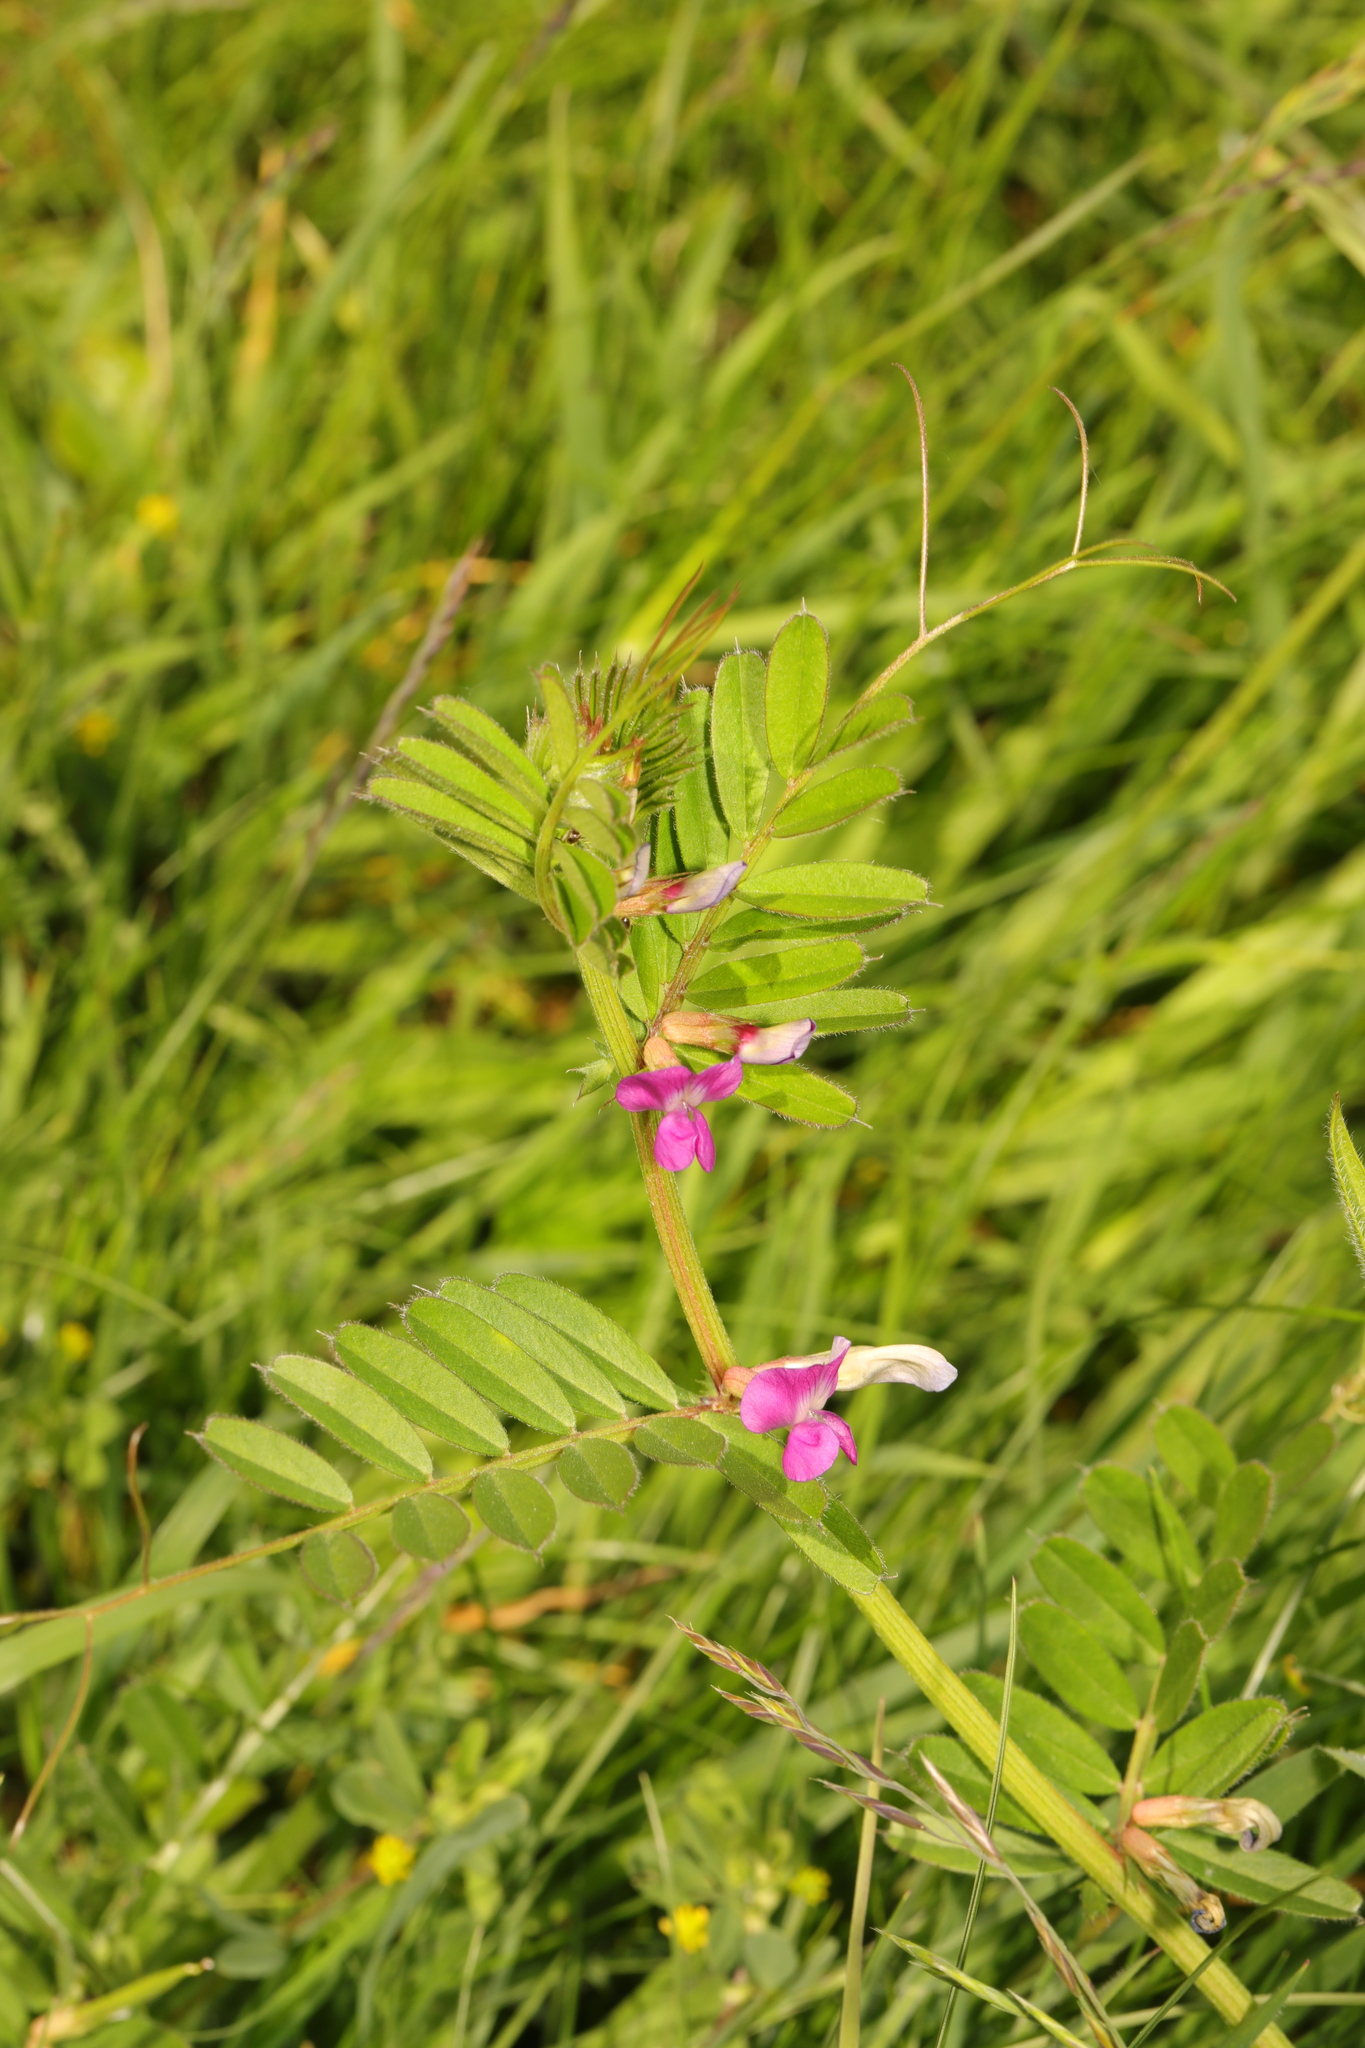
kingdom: Plantae
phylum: Tracheophyta
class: Magnoliopsida
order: Fabales
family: Fabaceae
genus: Vicia
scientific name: Vicia sativa
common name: Garden vetch
